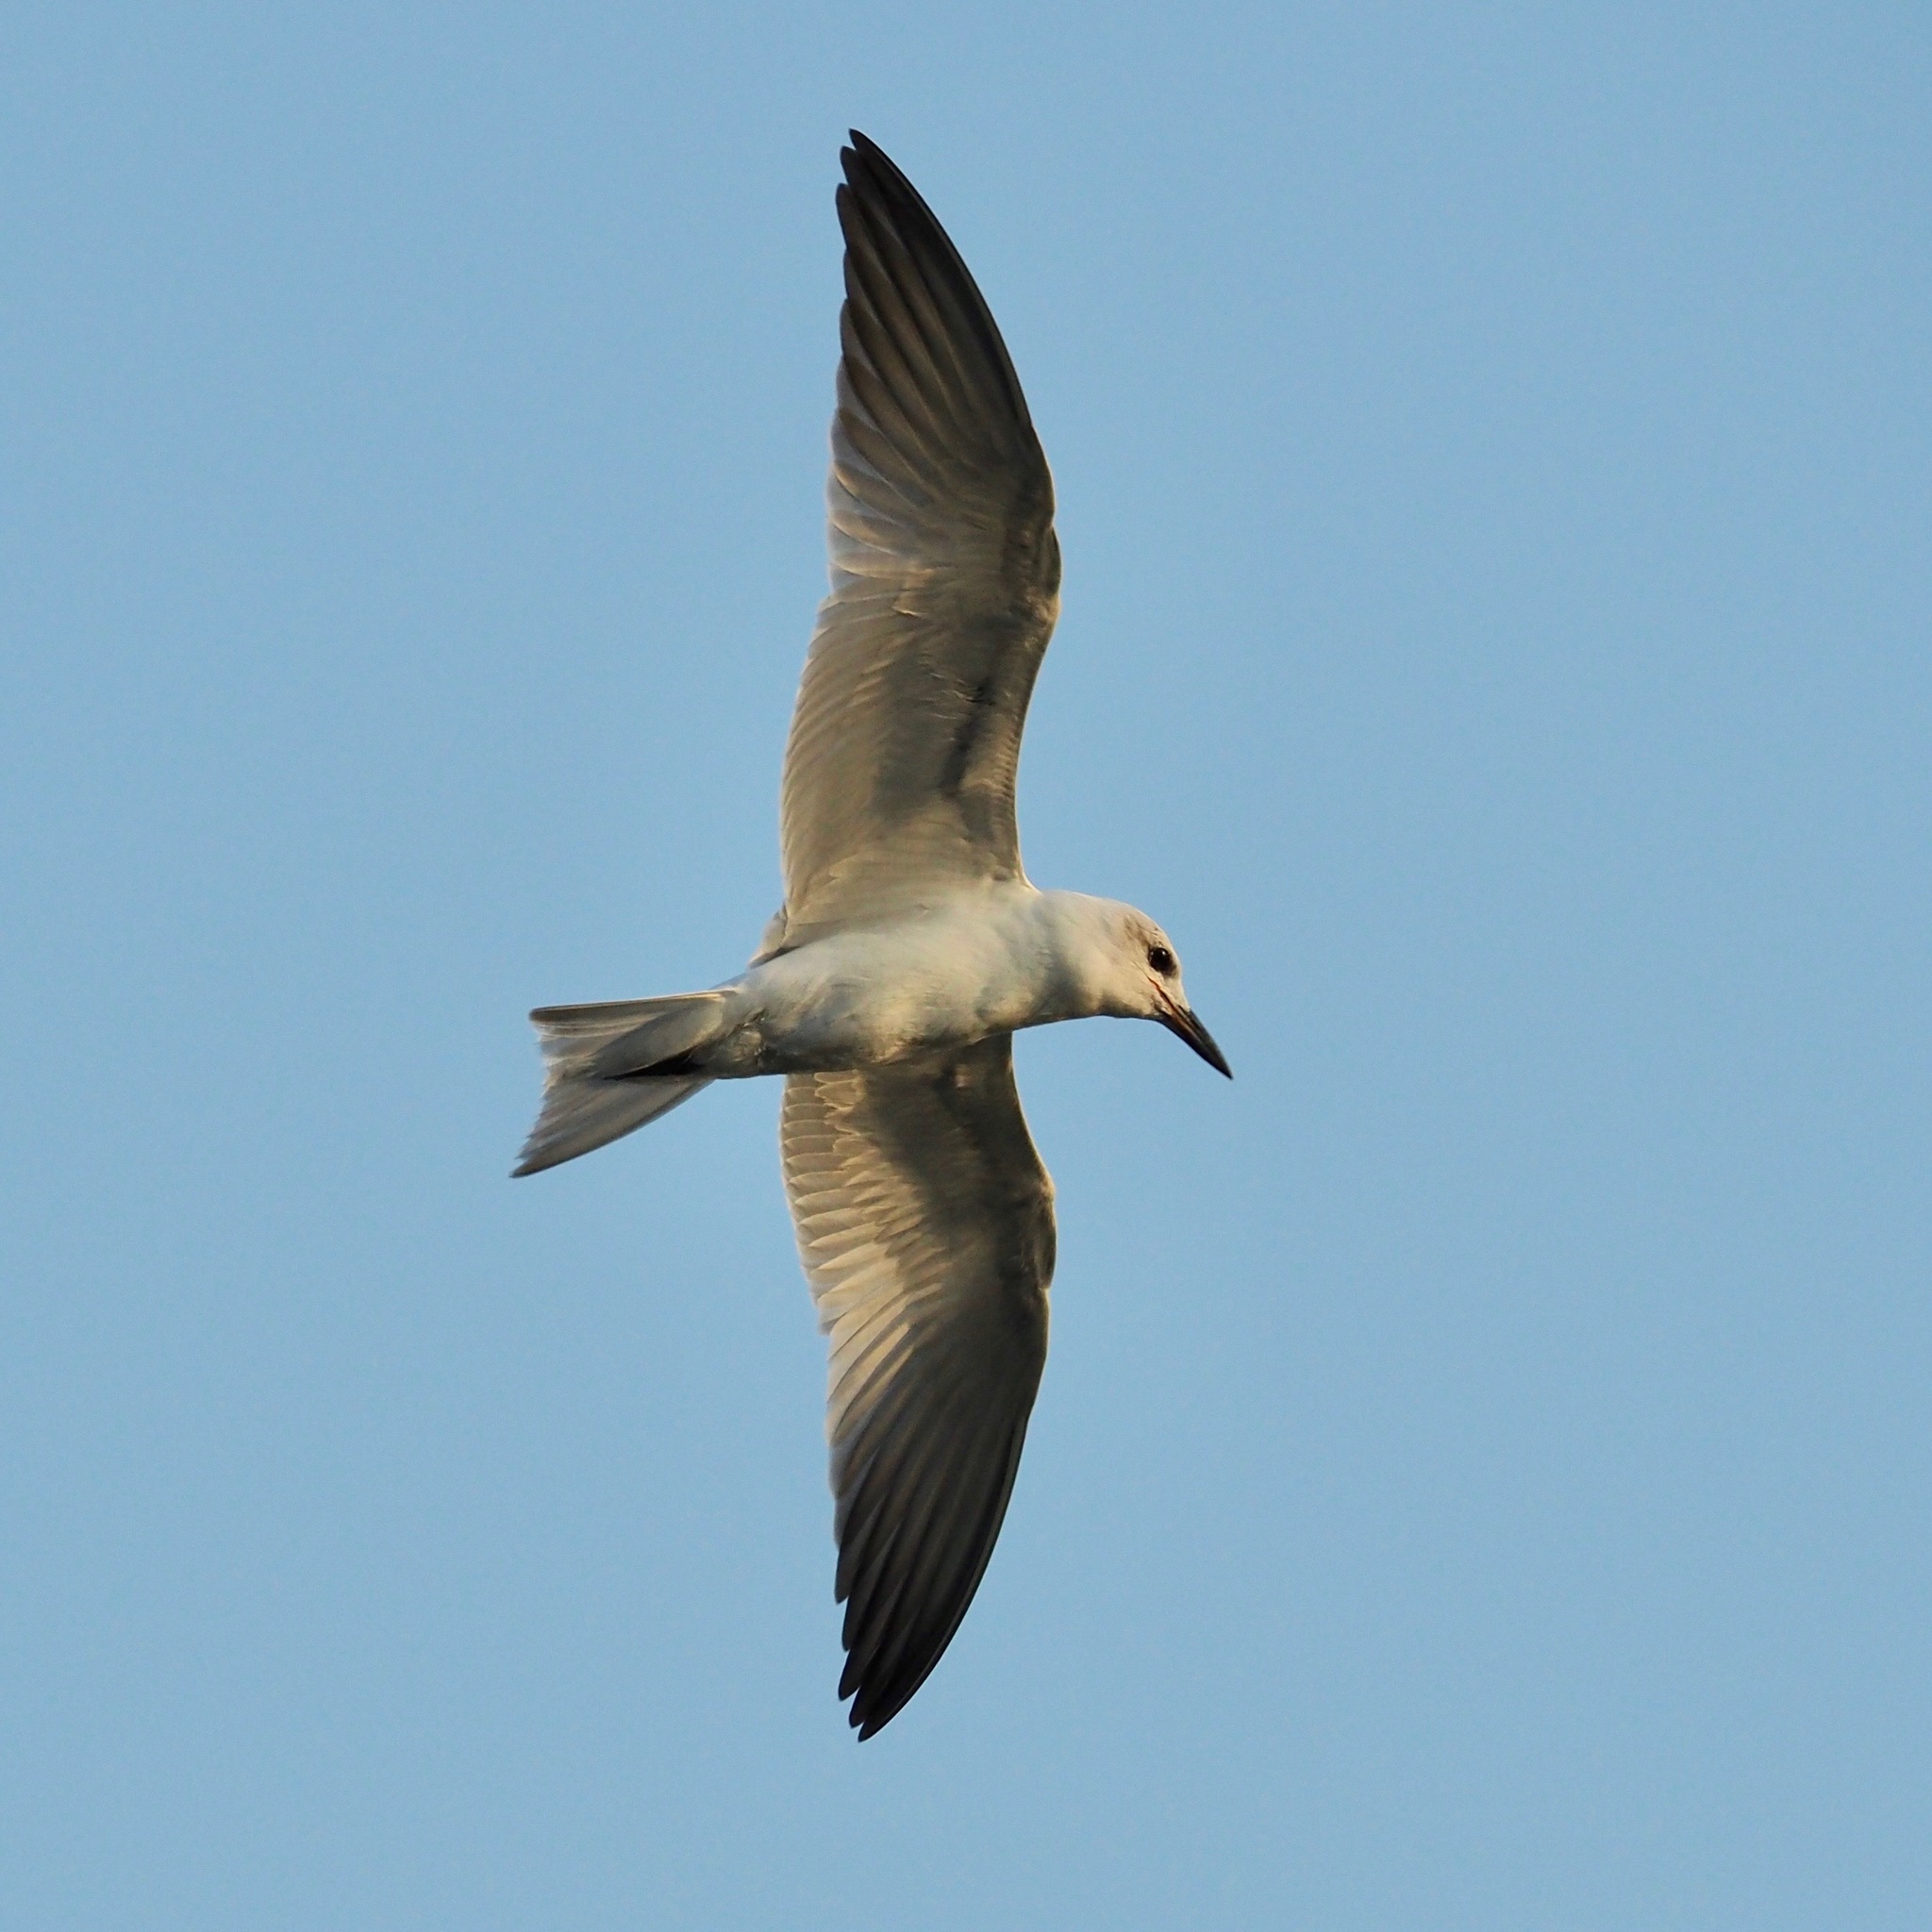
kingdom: Animalia
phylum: Chordata
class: Aves
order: Charadriiformes
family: Laridae
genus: Gelochelidon
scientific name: Gelochelidon nilotica
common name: Gull-billed tern
